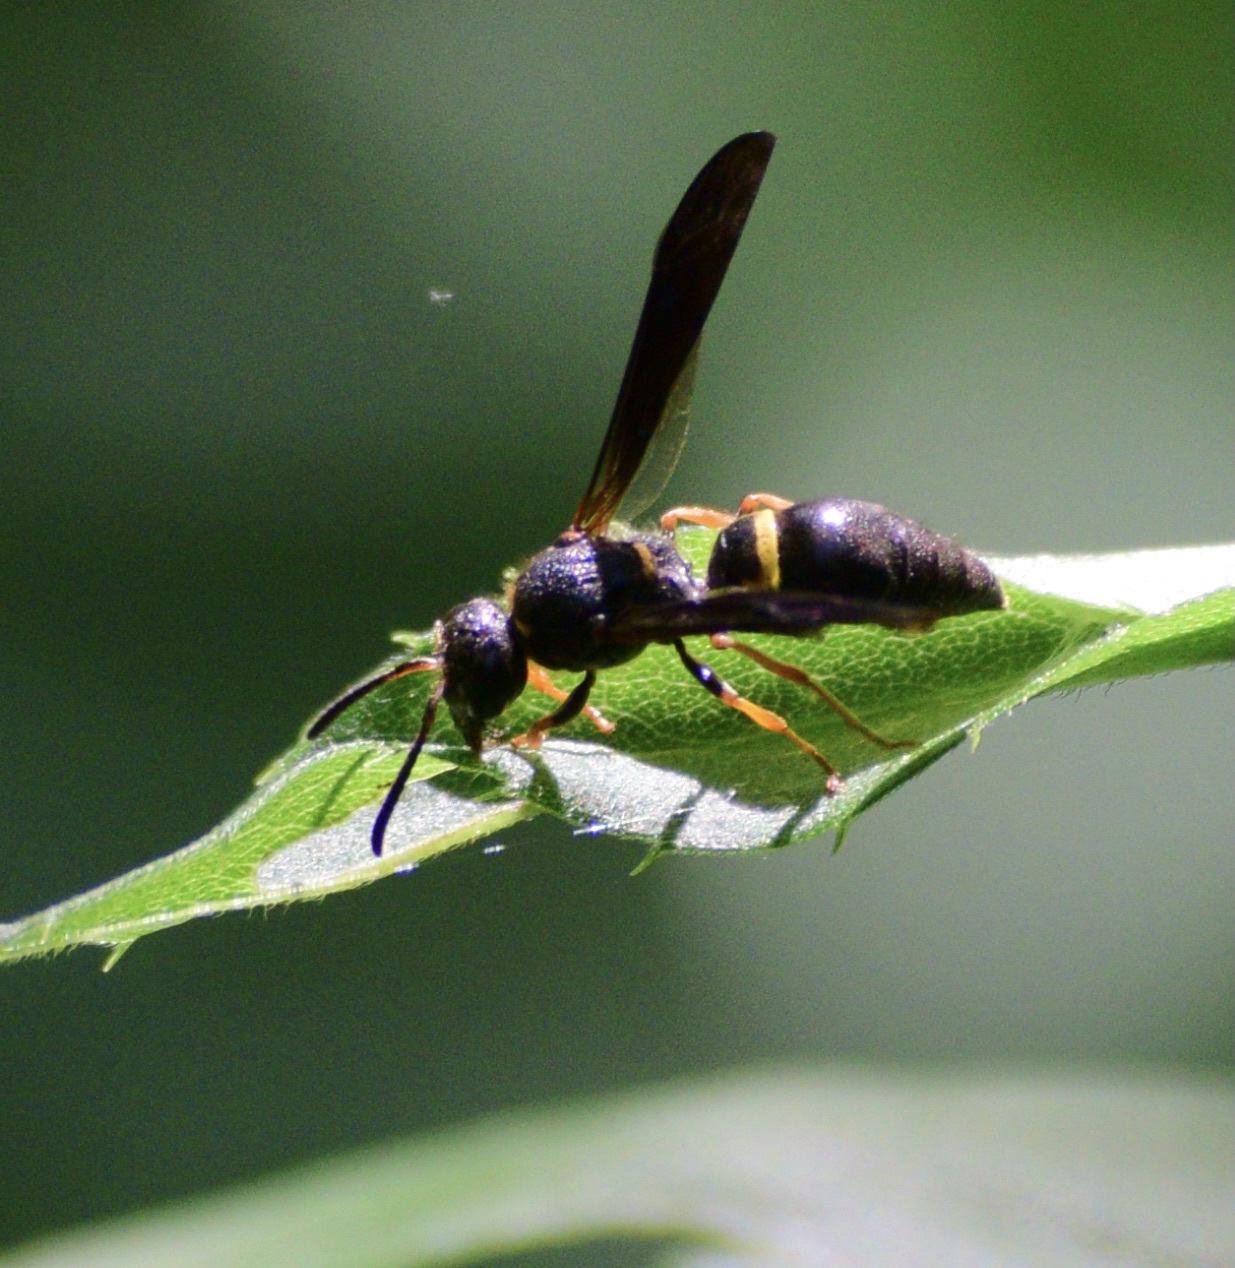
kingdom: Animalia
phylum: Arthropoda
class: Insecta
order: Hymenoptera
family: Vespidae
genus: Ancistrocerus
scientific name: Ancistrocerus unifasciatus
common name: One-banded mason wasp
